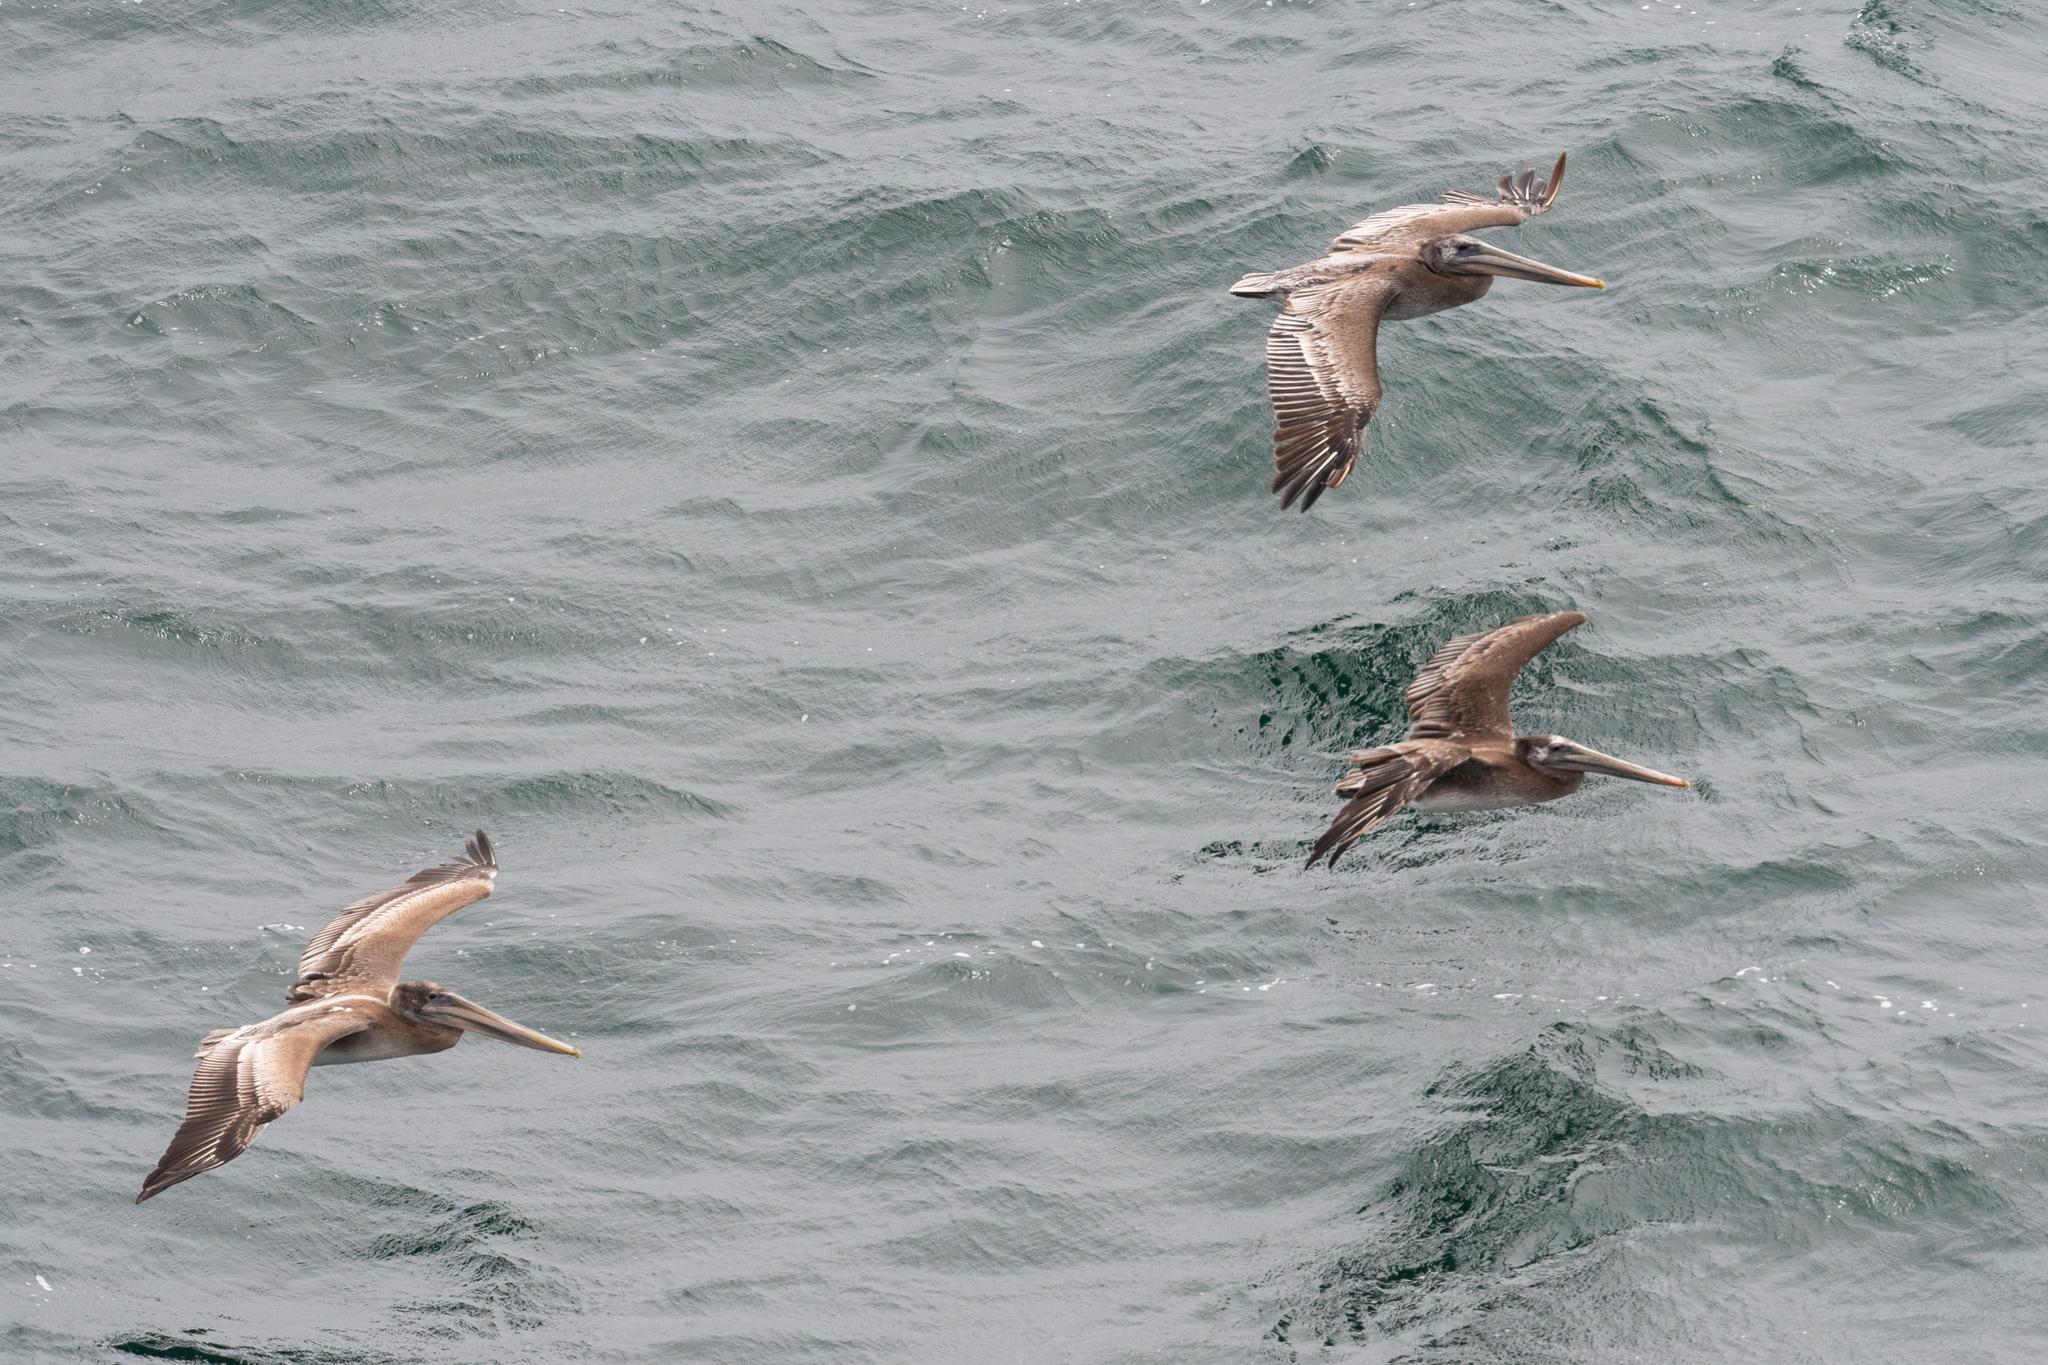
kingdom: Animalia
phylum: Chordata
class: Aves
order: Pelecaniformes
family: Pelecanidae
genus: Pelecanus
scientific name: Pelecanus occidentalis
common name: Brown pelican
